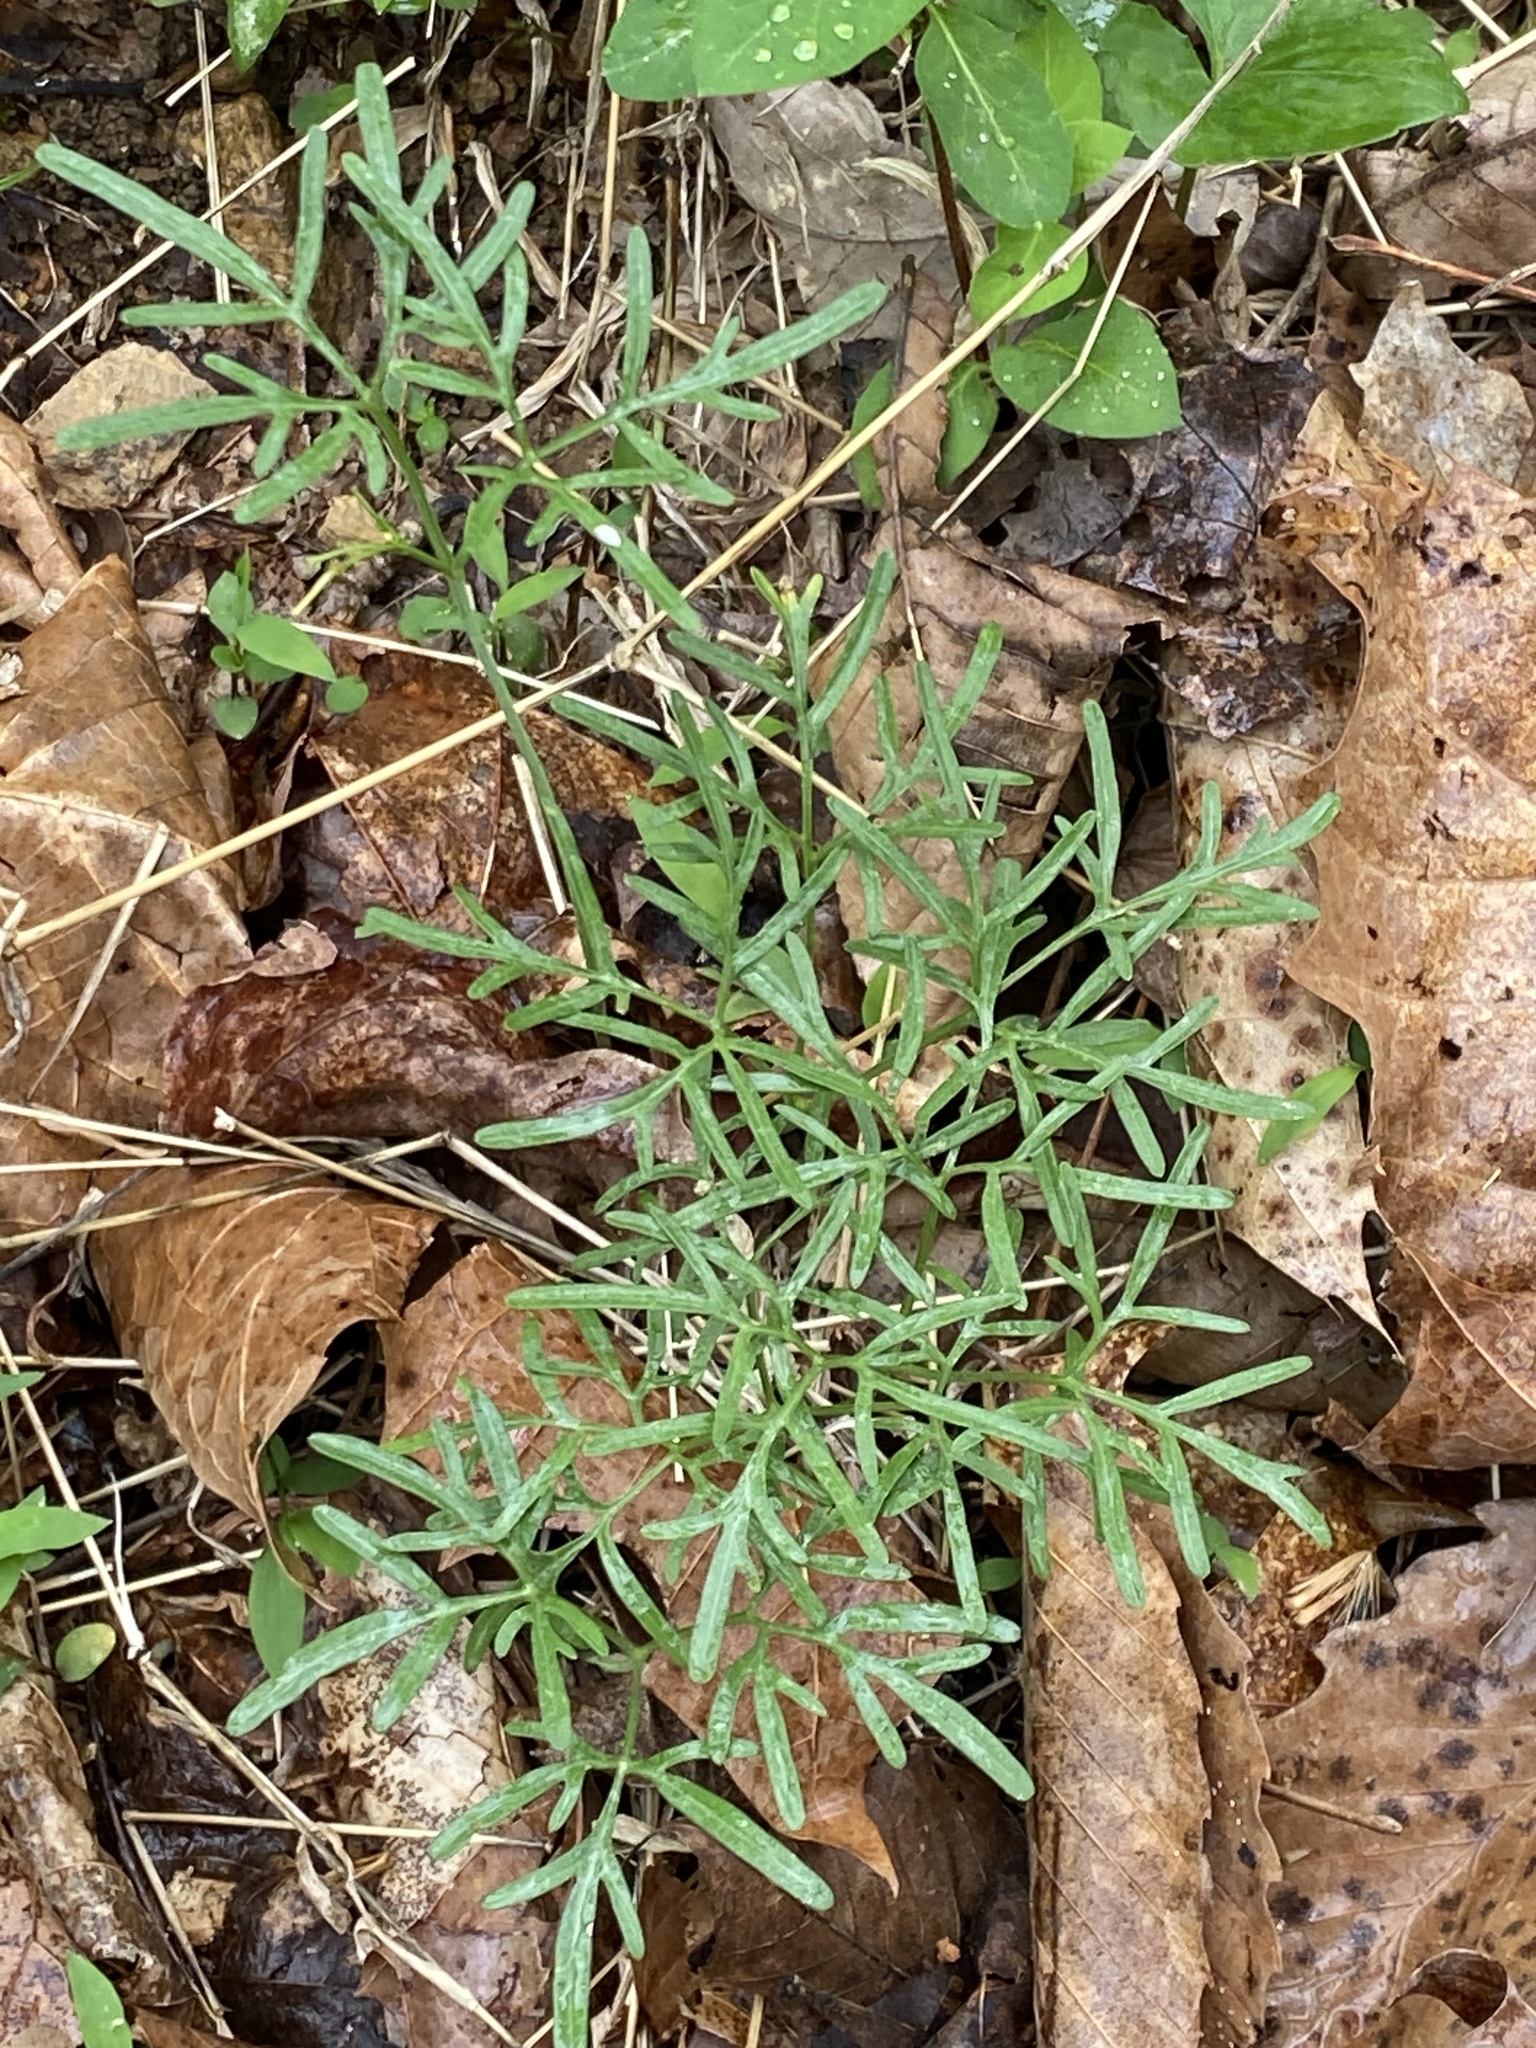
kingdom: Plantae
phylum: Tracheophyta
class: Magnoliopsida
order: Brassicales
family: Brassicaceae
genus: Cardamine
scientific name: Cardamine dissecta
